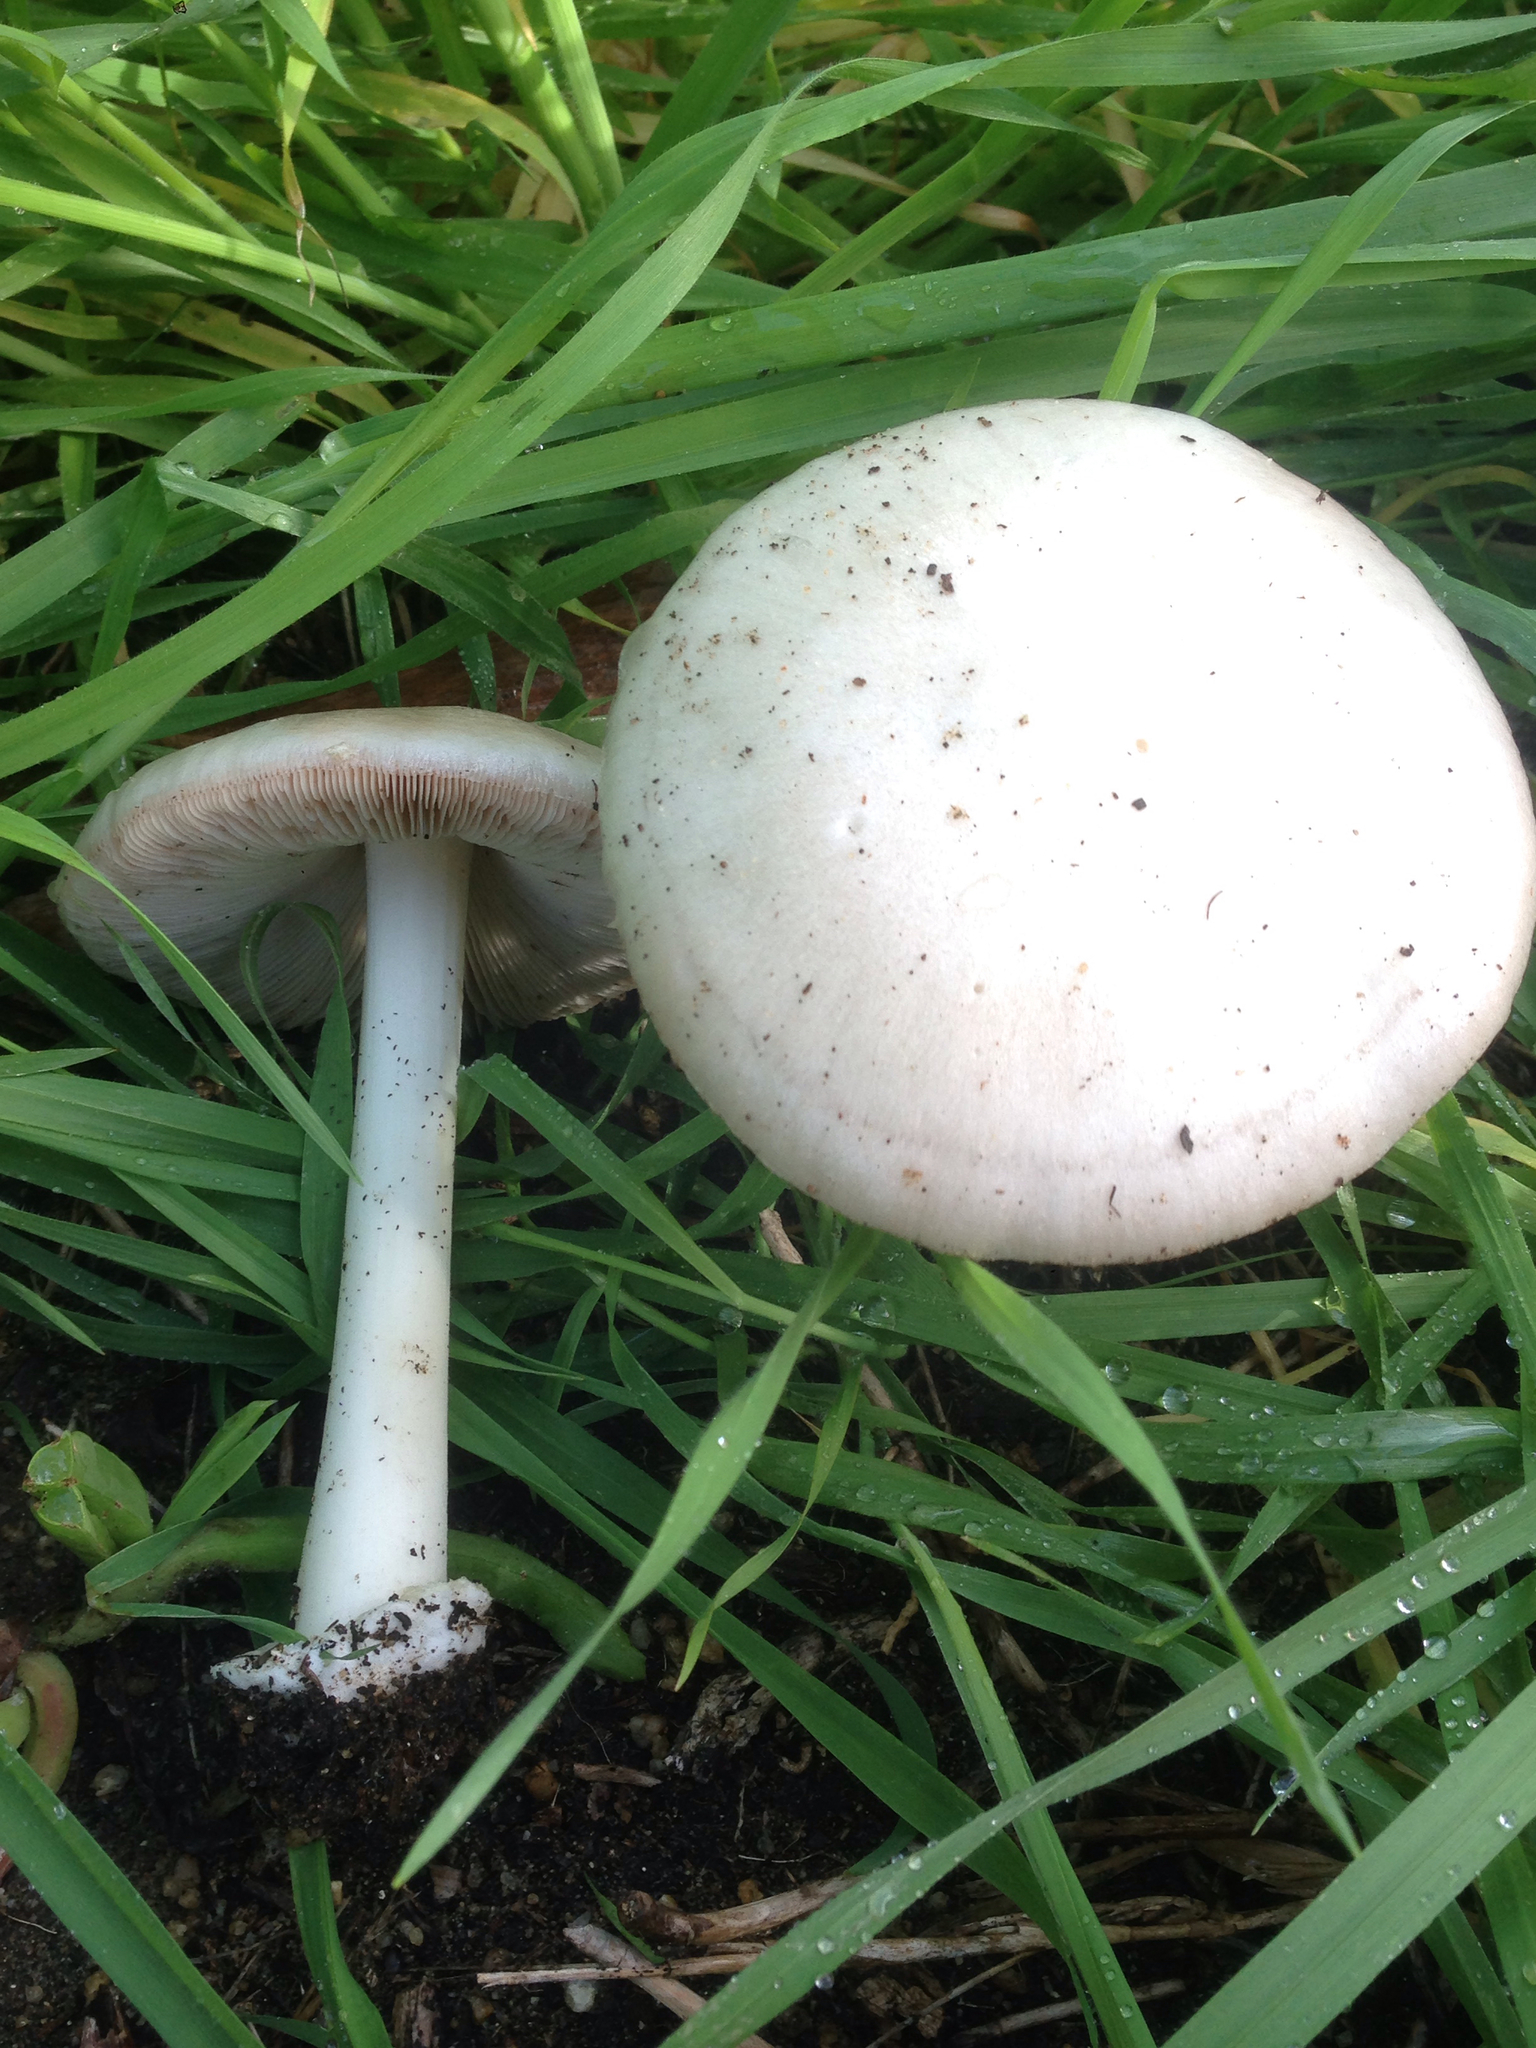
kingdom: Fungi
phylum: Basidiomycota
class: Agaricomycetes
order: Agaricales
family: Pluteaceae
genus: Volvopluteus
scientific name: Volvopluteus gloiocephalus
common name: Stubble rosegill
